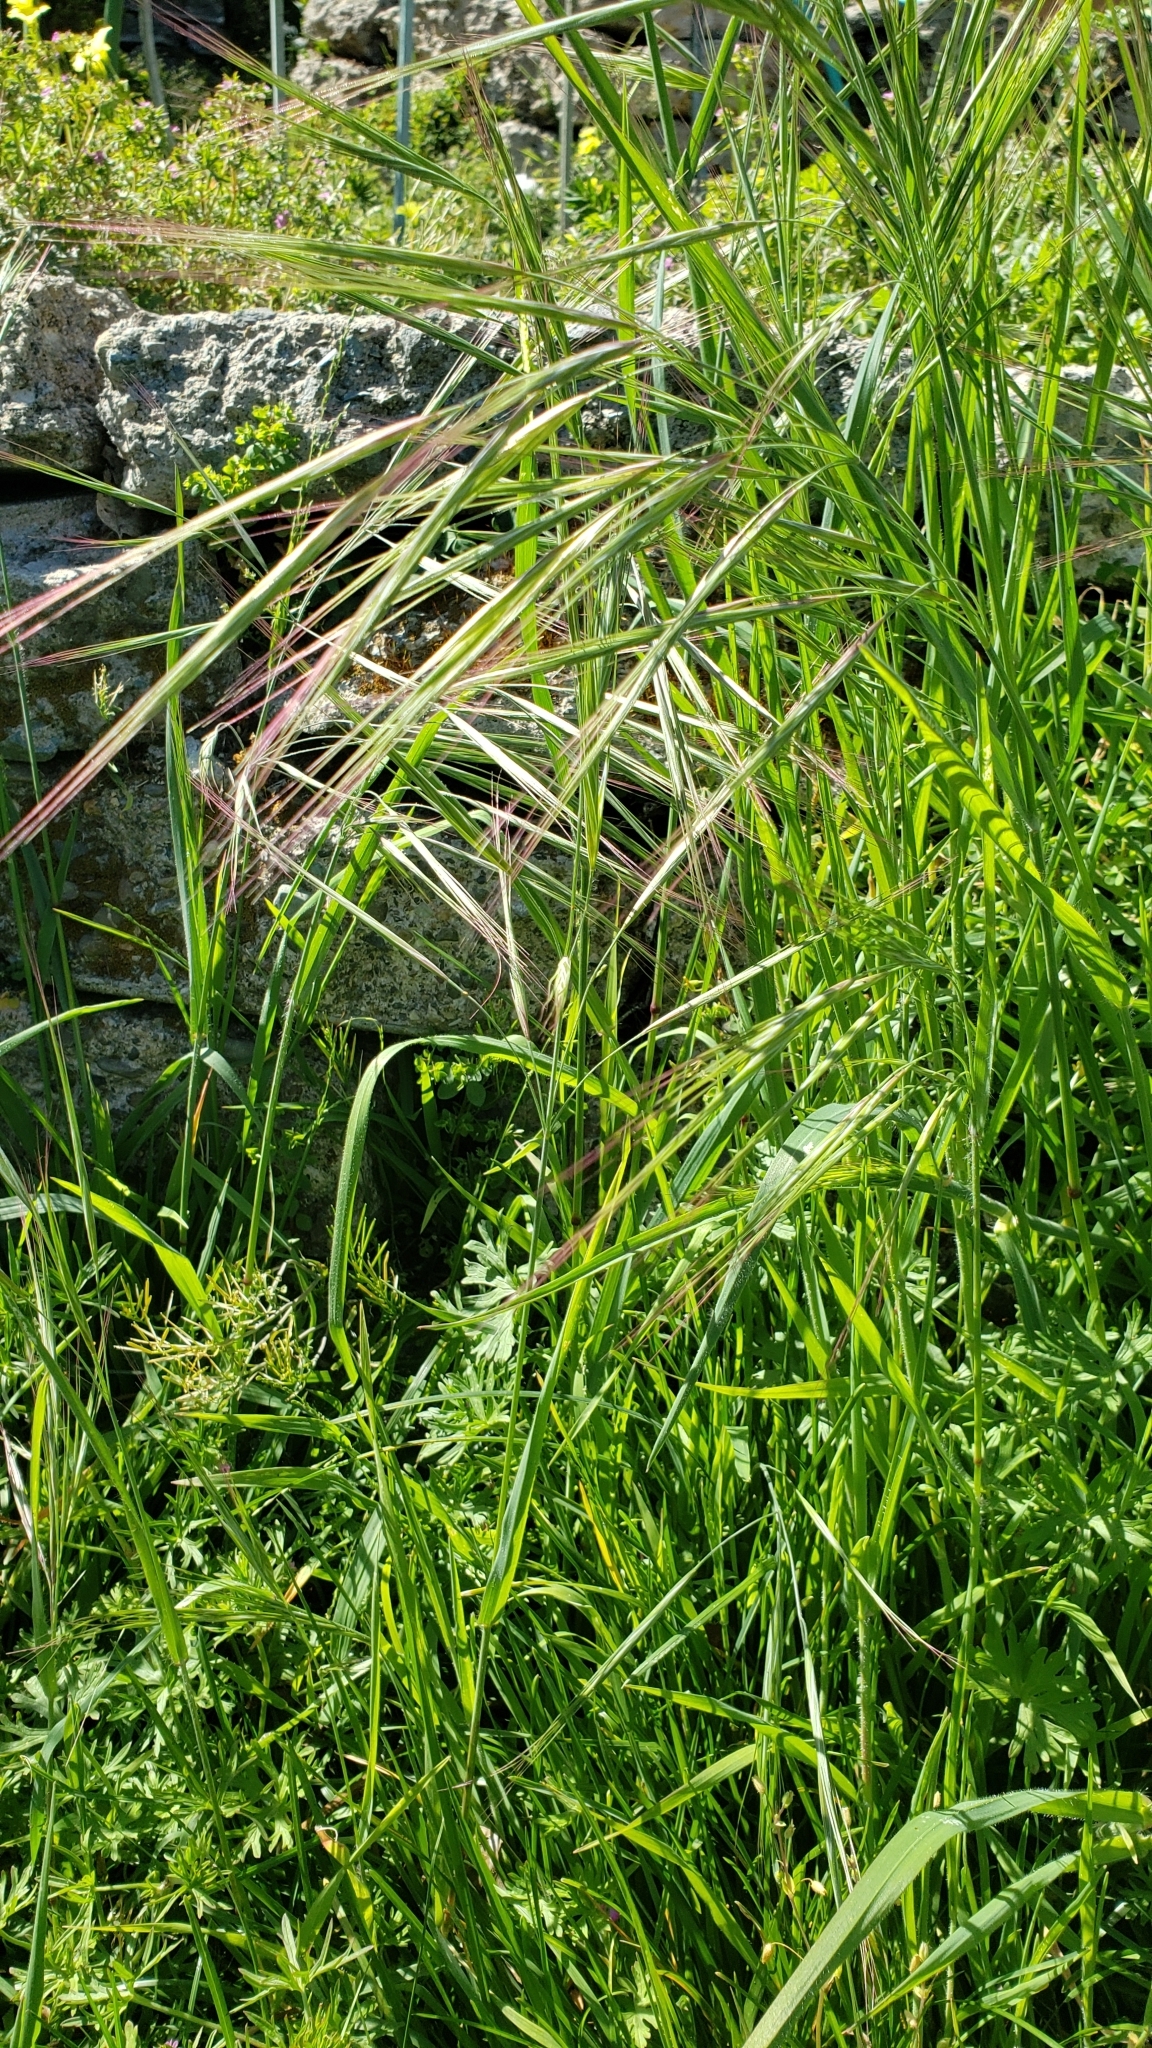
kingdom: Plantae
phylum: Tracheophyta
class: Liliopsida
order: Poales
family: Poaceae
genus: Bromus
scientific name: Bromus diandrus
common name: Ripgut brome
